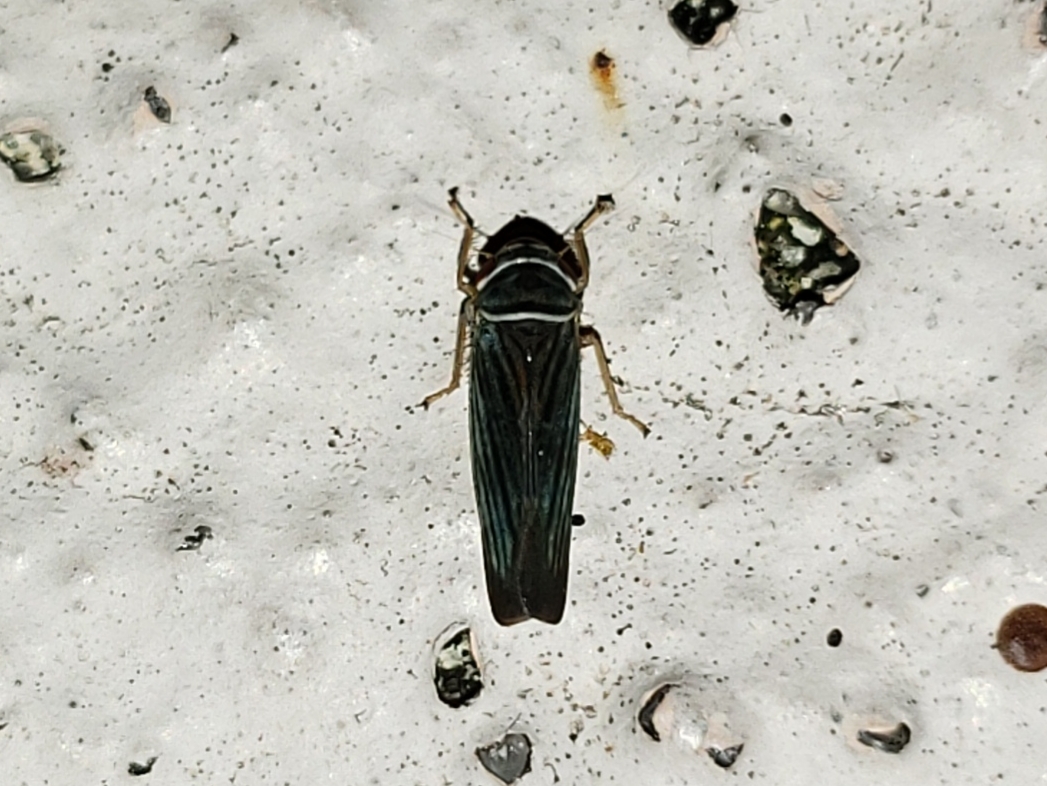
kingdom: Animalia
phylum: Arthropoda
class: Insecta
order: Hemiptera
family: Cicadellidae
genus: Tylozygus
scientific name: Tylozygus bifidus
